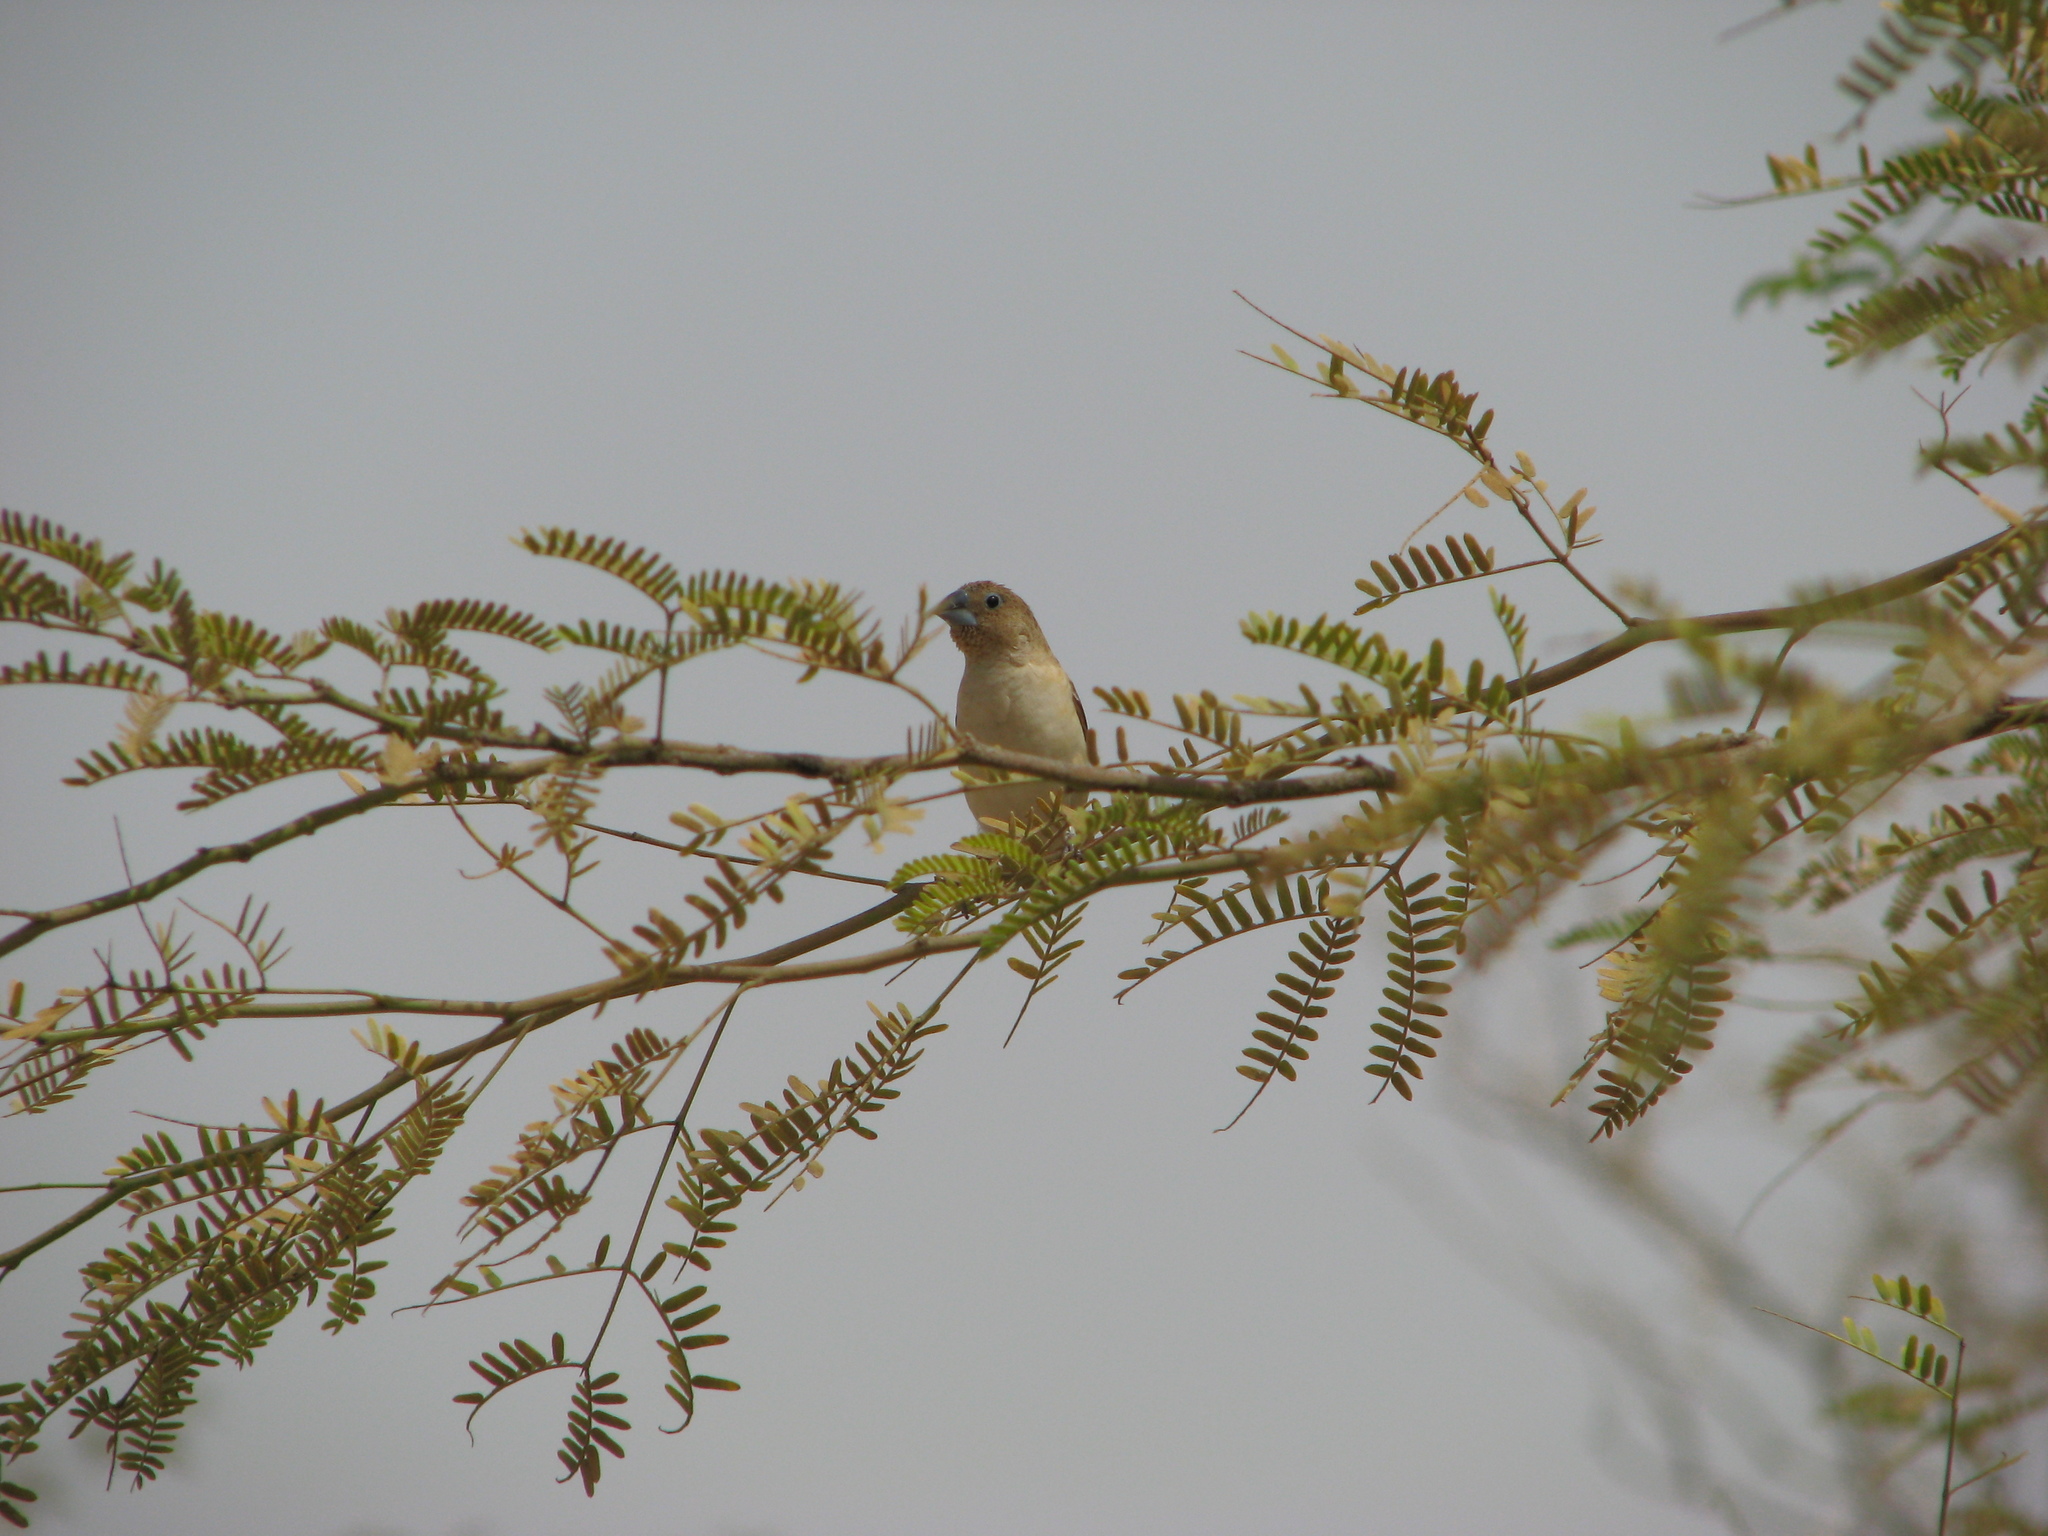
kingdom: Animalia
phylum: Chordata
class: Aves
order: Passeriformes
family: Estrildidae
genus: Euodice
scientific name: Euodice cantans
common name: African silverbill
